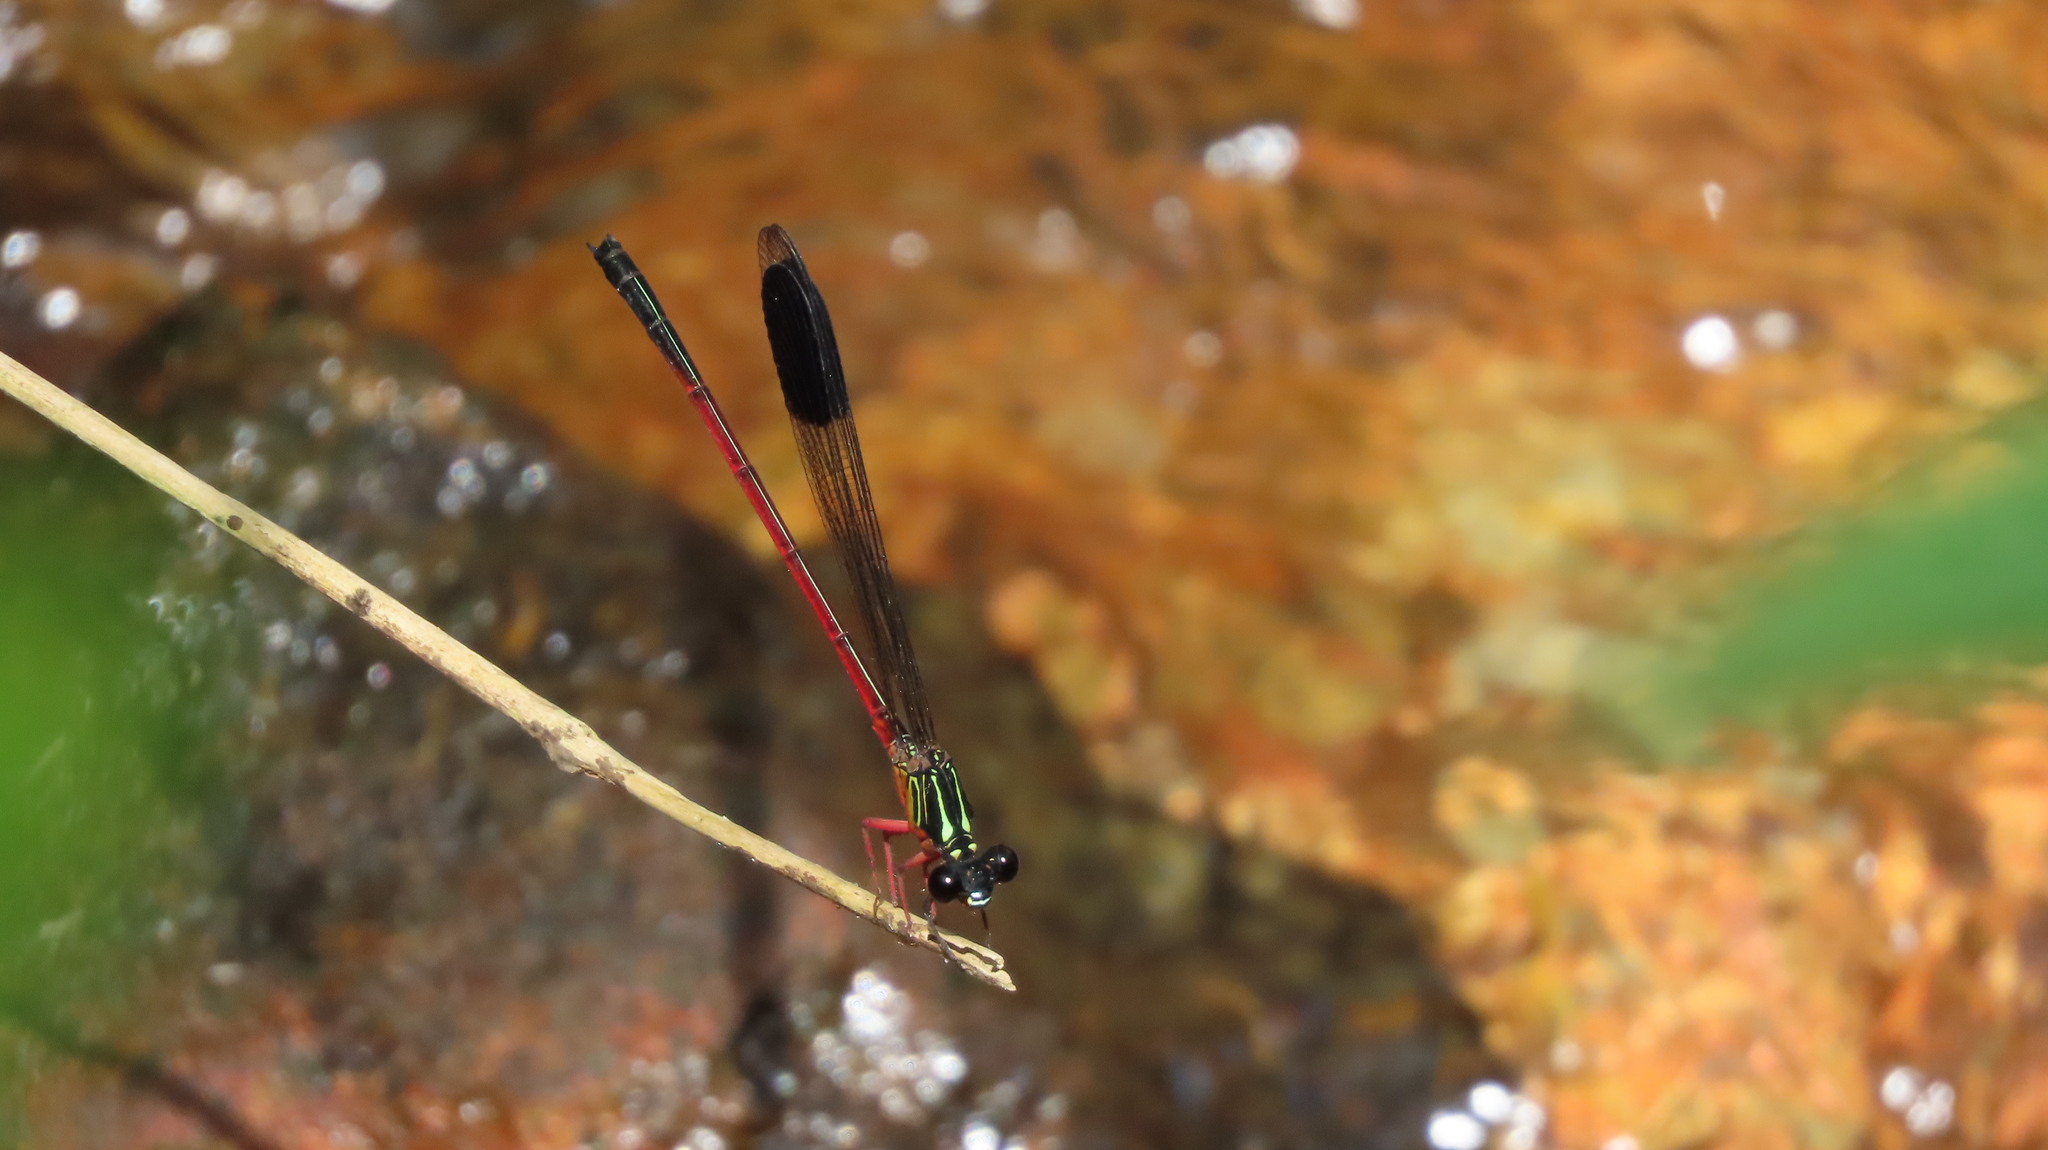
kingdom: Animalia
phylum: Arthropoda
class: Insecta
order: Odonata
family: Euphaeidae
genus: Euphaea
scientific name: Euphaea fraseri
